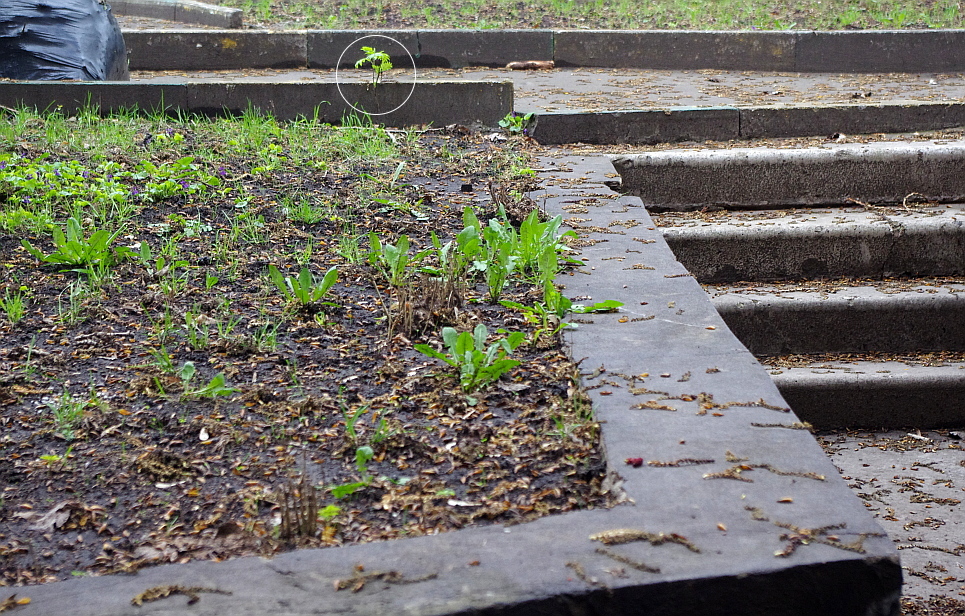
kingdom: Plantae
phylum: Tracheophyta
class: Magnoliopsida
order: Rosales
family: Rosaceae
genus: Sorbus
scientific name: Sorbus aucuparia
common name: Rowan
